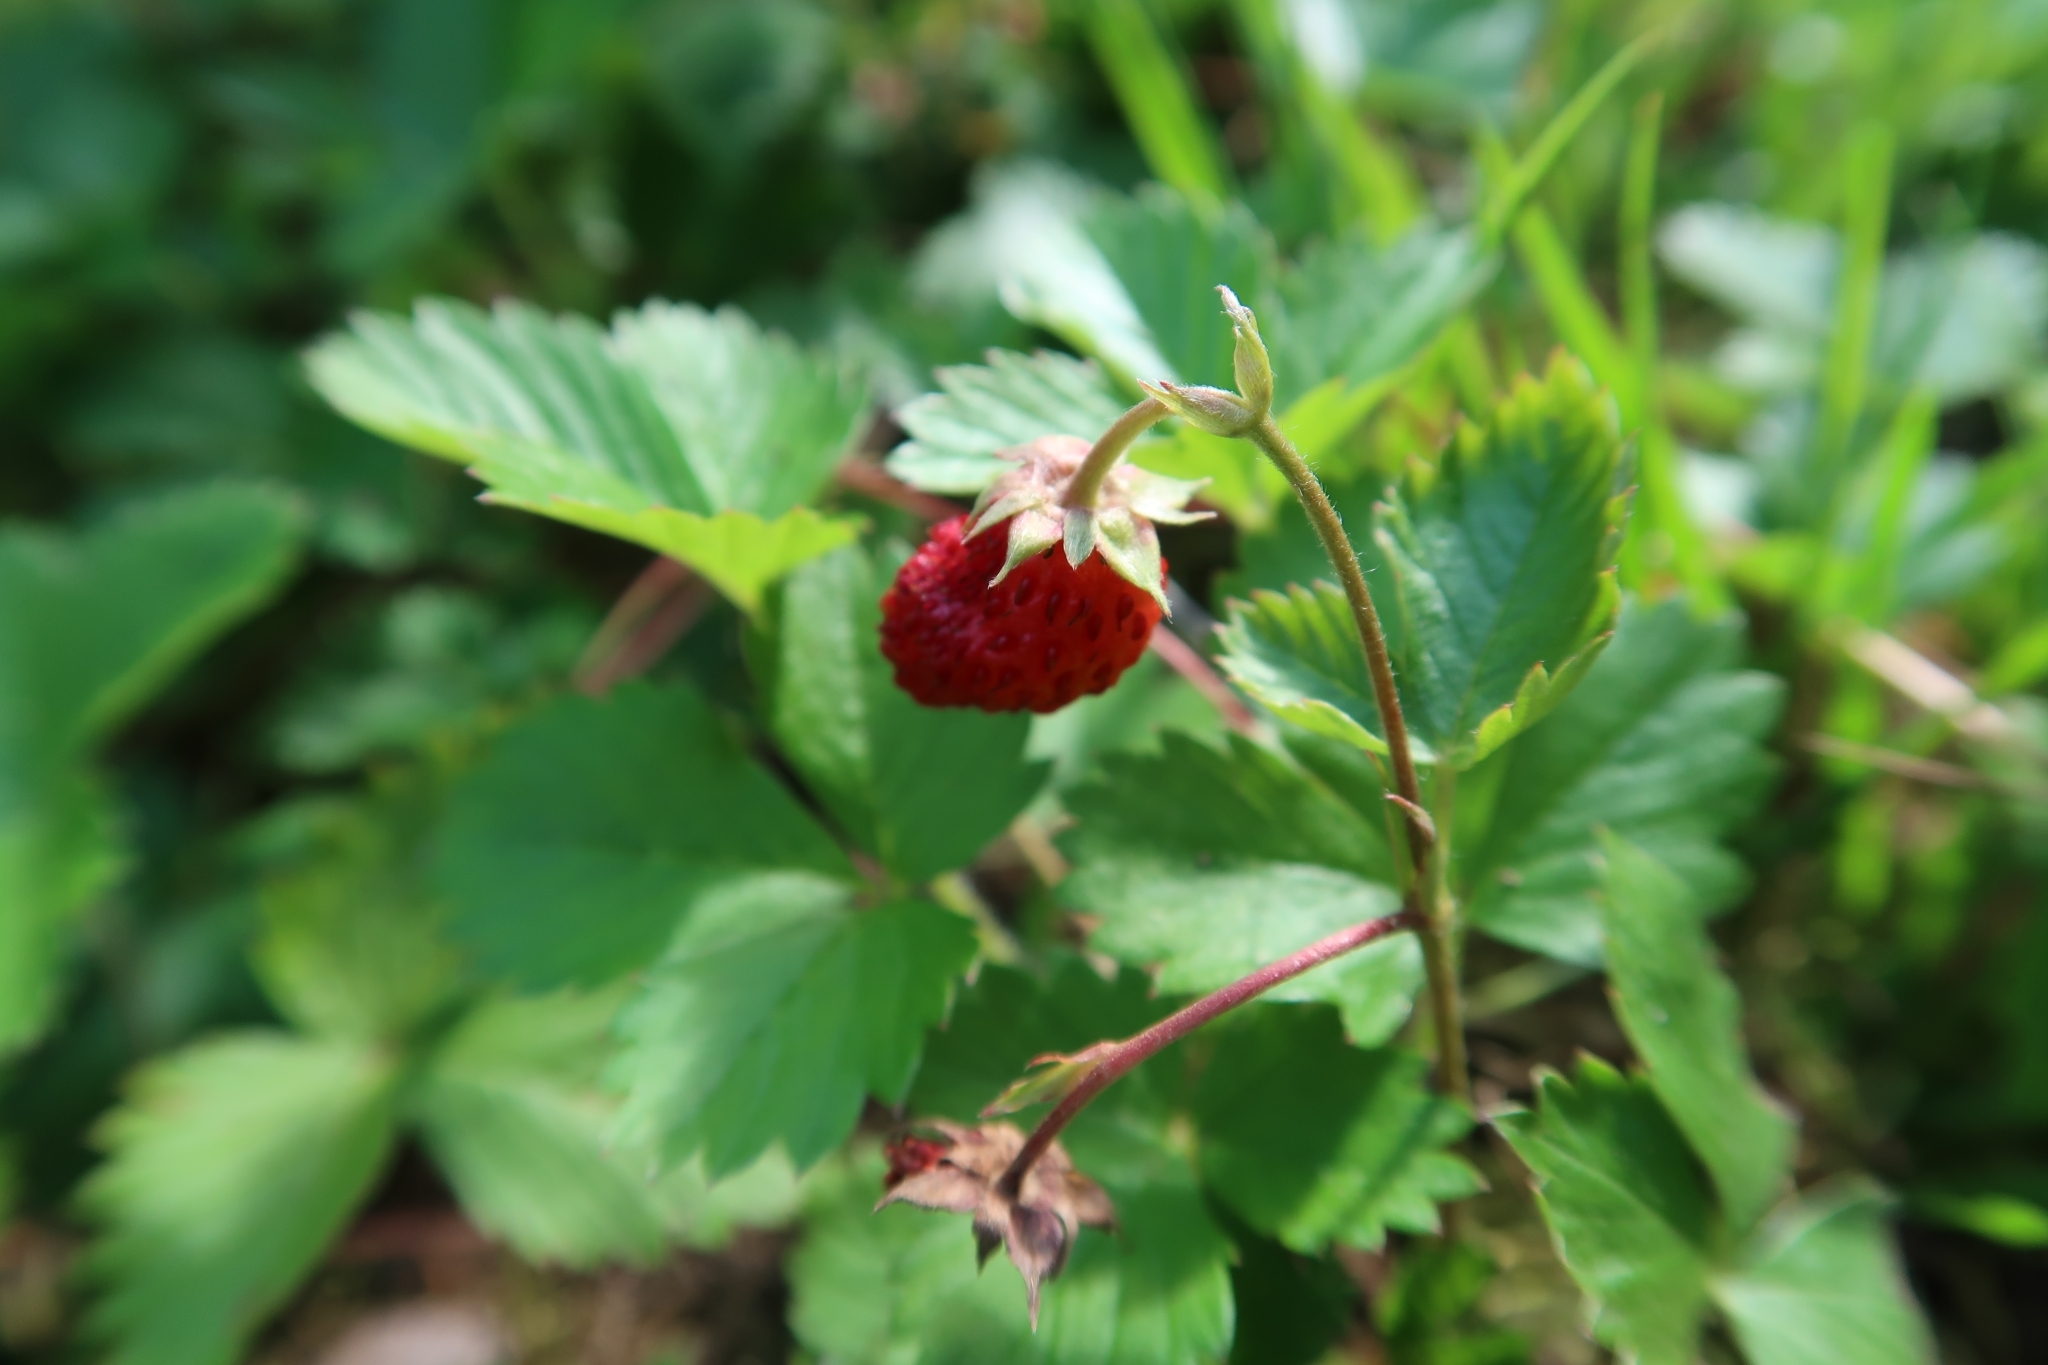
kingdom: Plantae
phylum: Tracheophyta
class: Magnoliopsida
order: Rosales
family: Rosaceae
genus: Fragaria
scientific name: Fragaria vesca
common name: Wild strawberry
